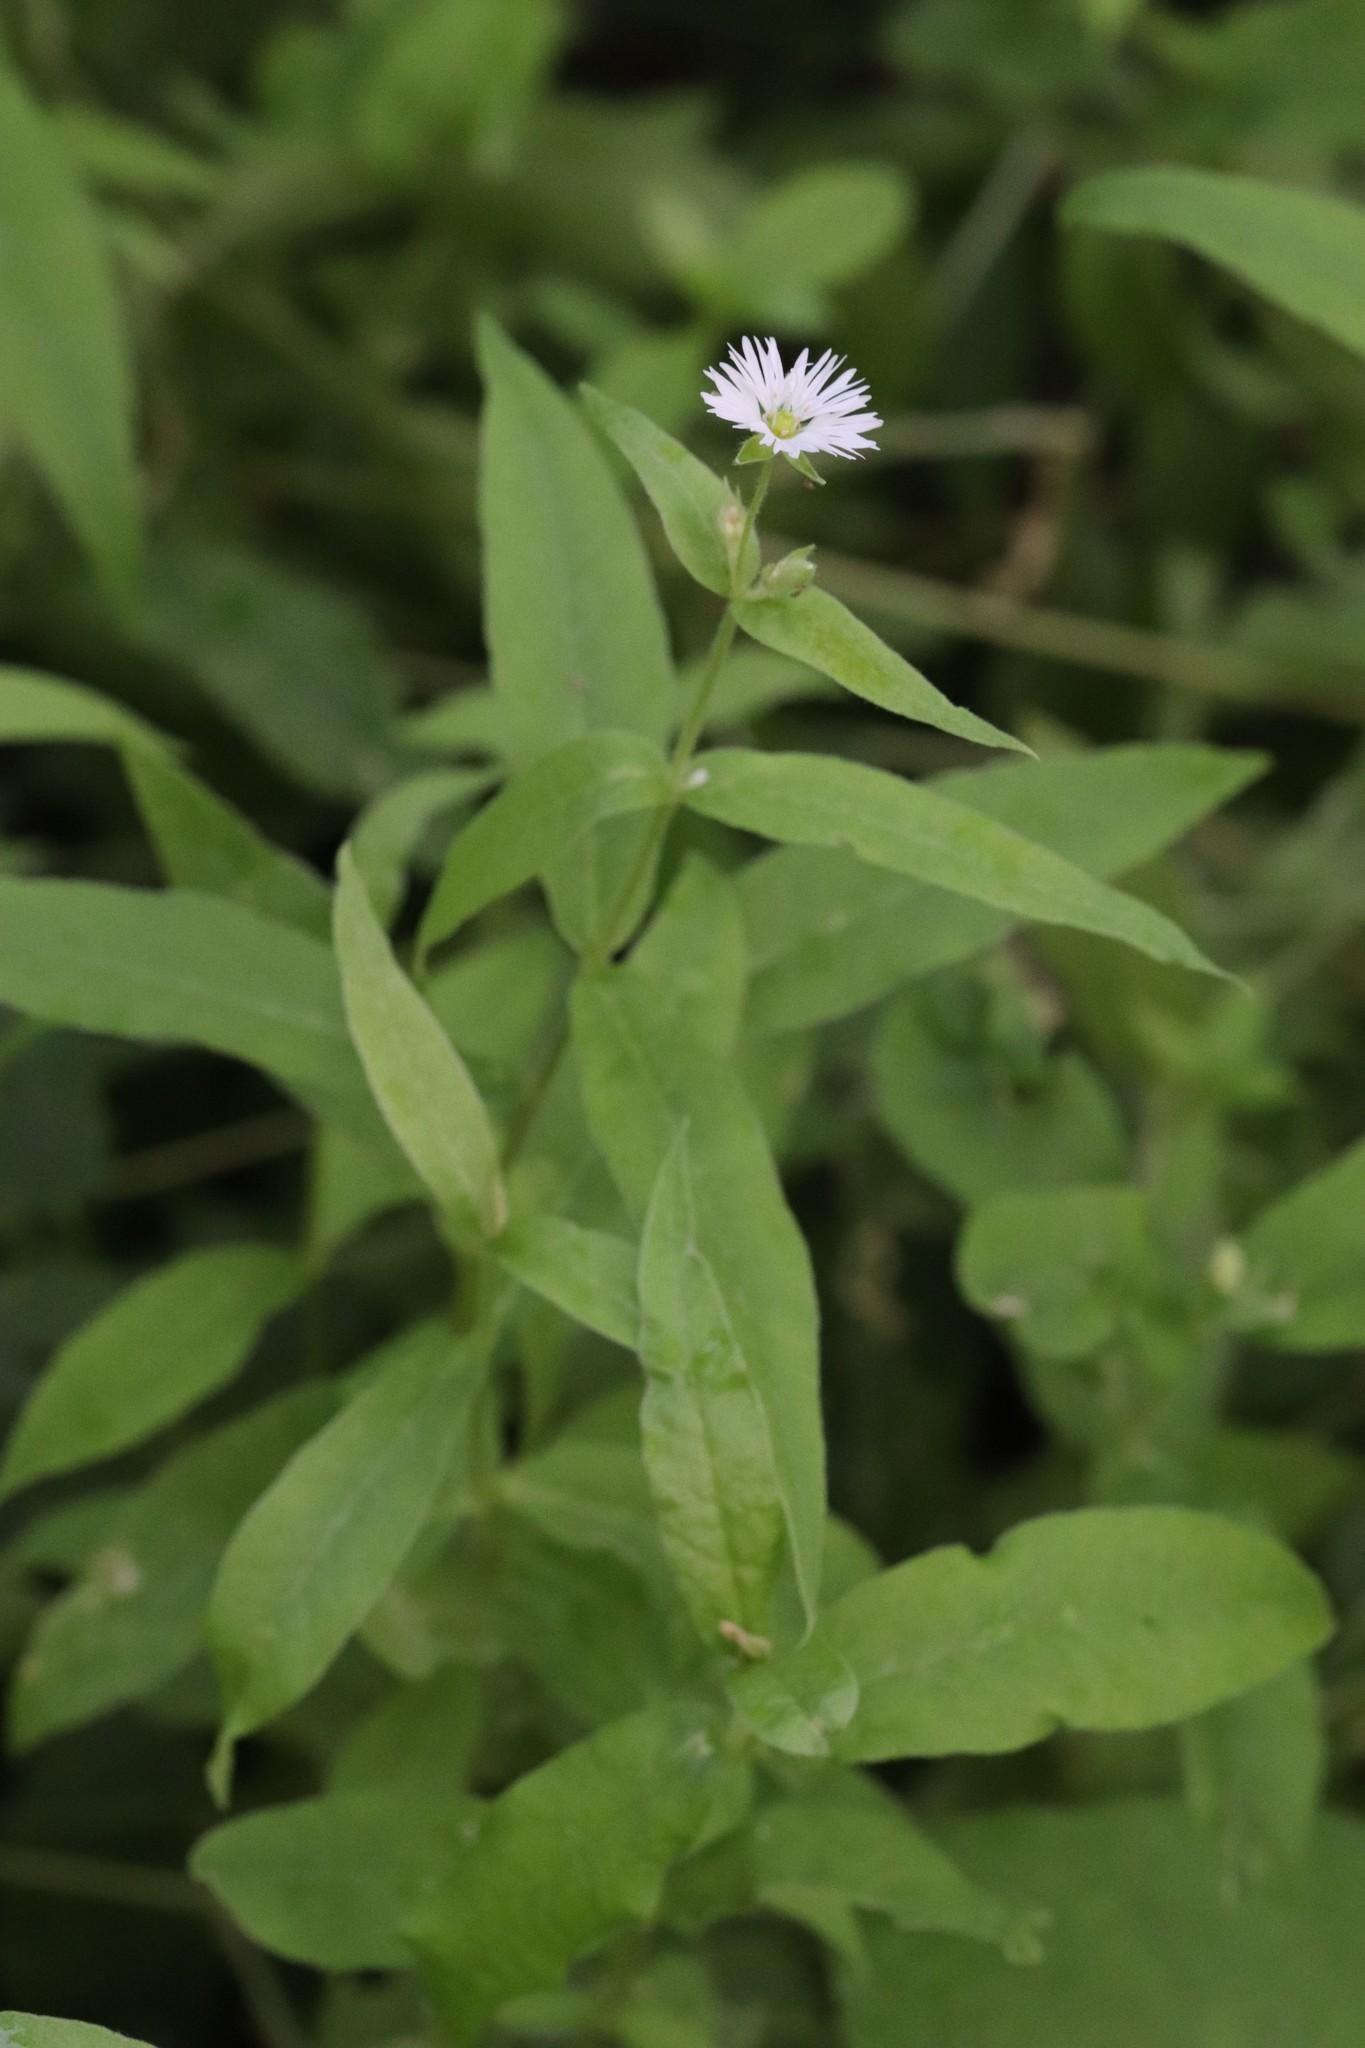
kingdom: Plantae
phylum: Tracheophyta
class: Magnoliopsida
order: Caryophyllales
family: Caryophyllaceae
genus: Stellaria
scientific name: Stellaria radians
